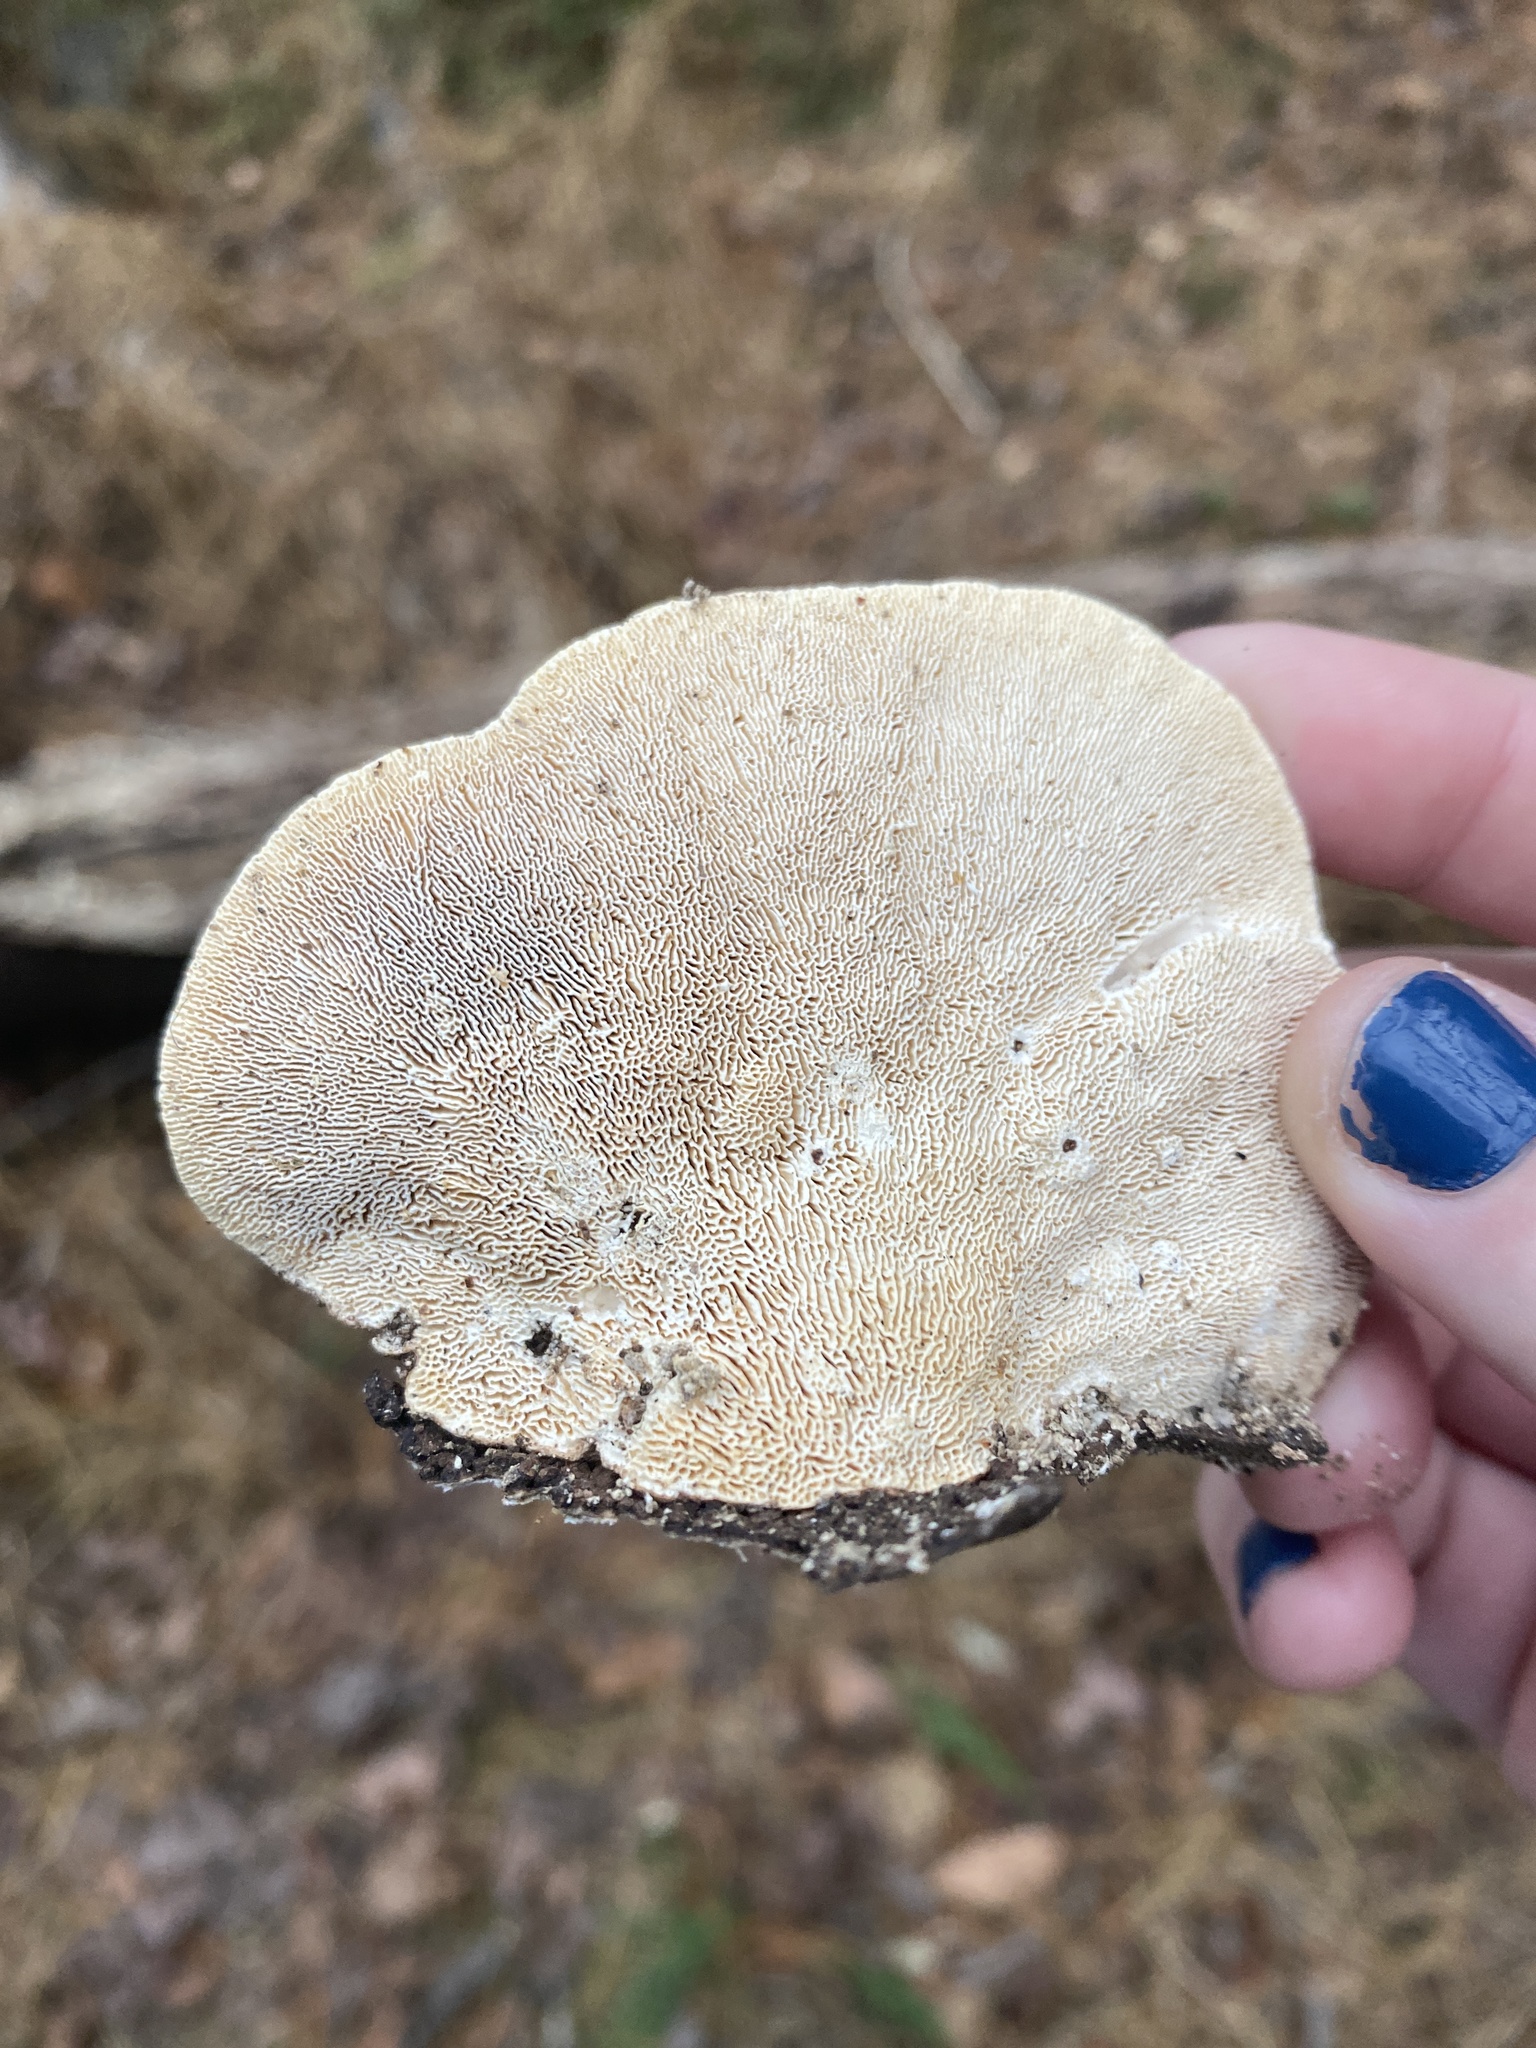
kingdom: Fungi
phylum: Basidiomycota
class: Agaricomycetes
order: Polyporales
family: Polyporaceae
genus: Trametes
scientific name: Trametes gibbosa
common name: Lumpy bracket
